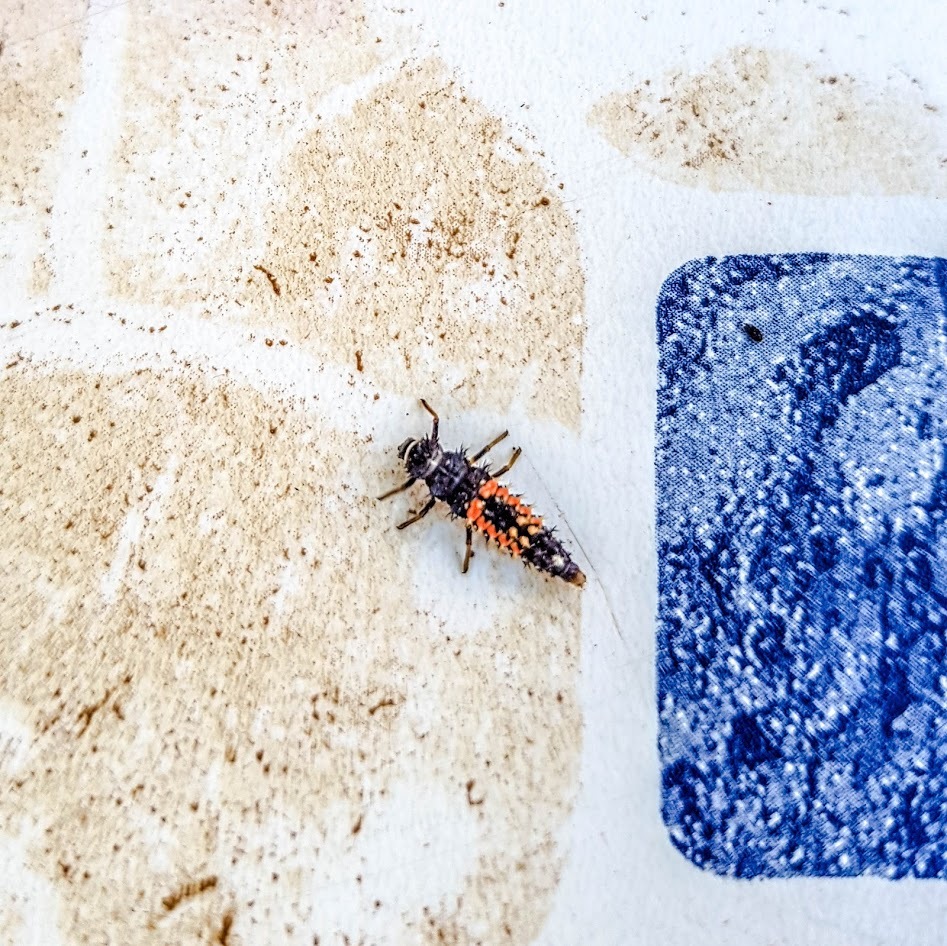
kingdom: Animalia
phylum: Arthropoda
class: Insecta
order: Coleoptera
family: Coccinellidae
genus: Harmonia
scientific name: Harmonia axyridis
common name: Harlequin ladybird
